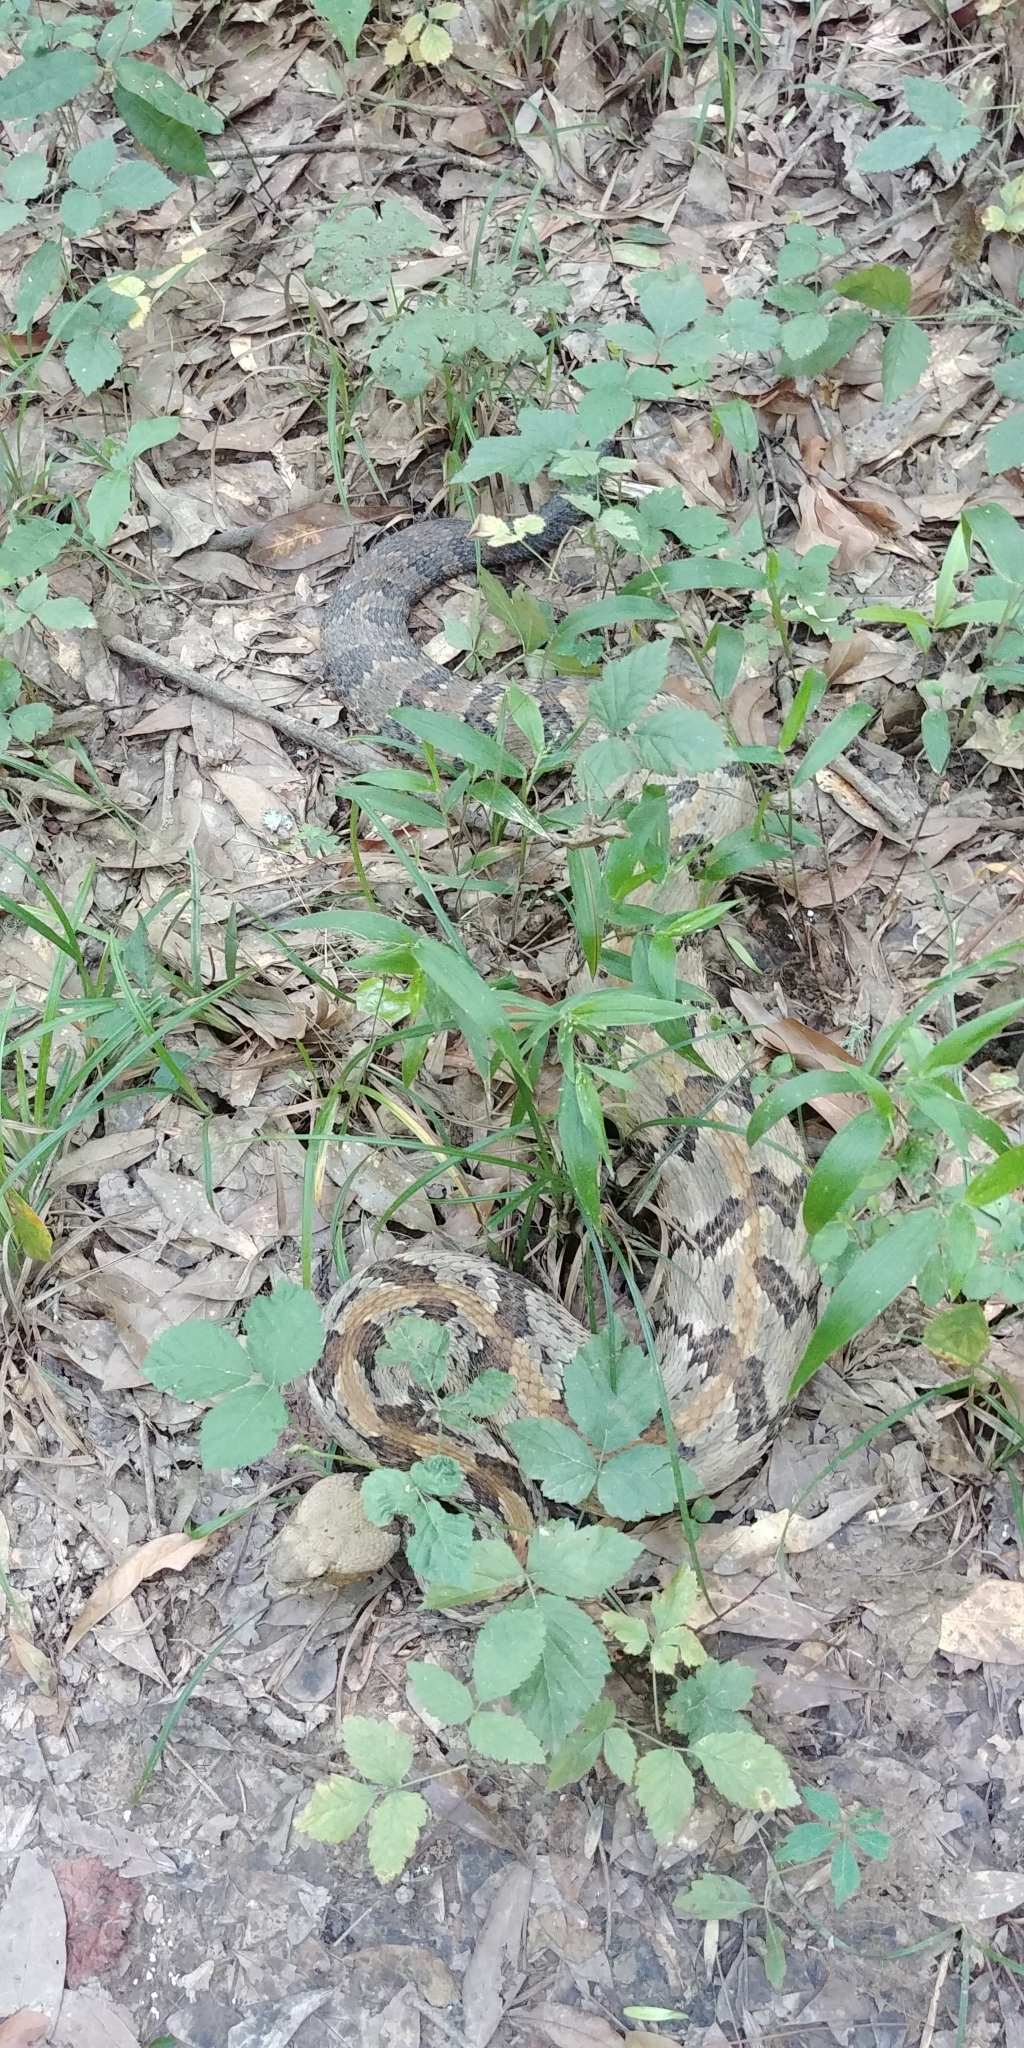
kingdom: Animalia
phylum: Chordata
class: Squamata
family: Viperidae
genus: Crotalus
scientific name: Crotalus horridus
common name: Timber rattlesnake
